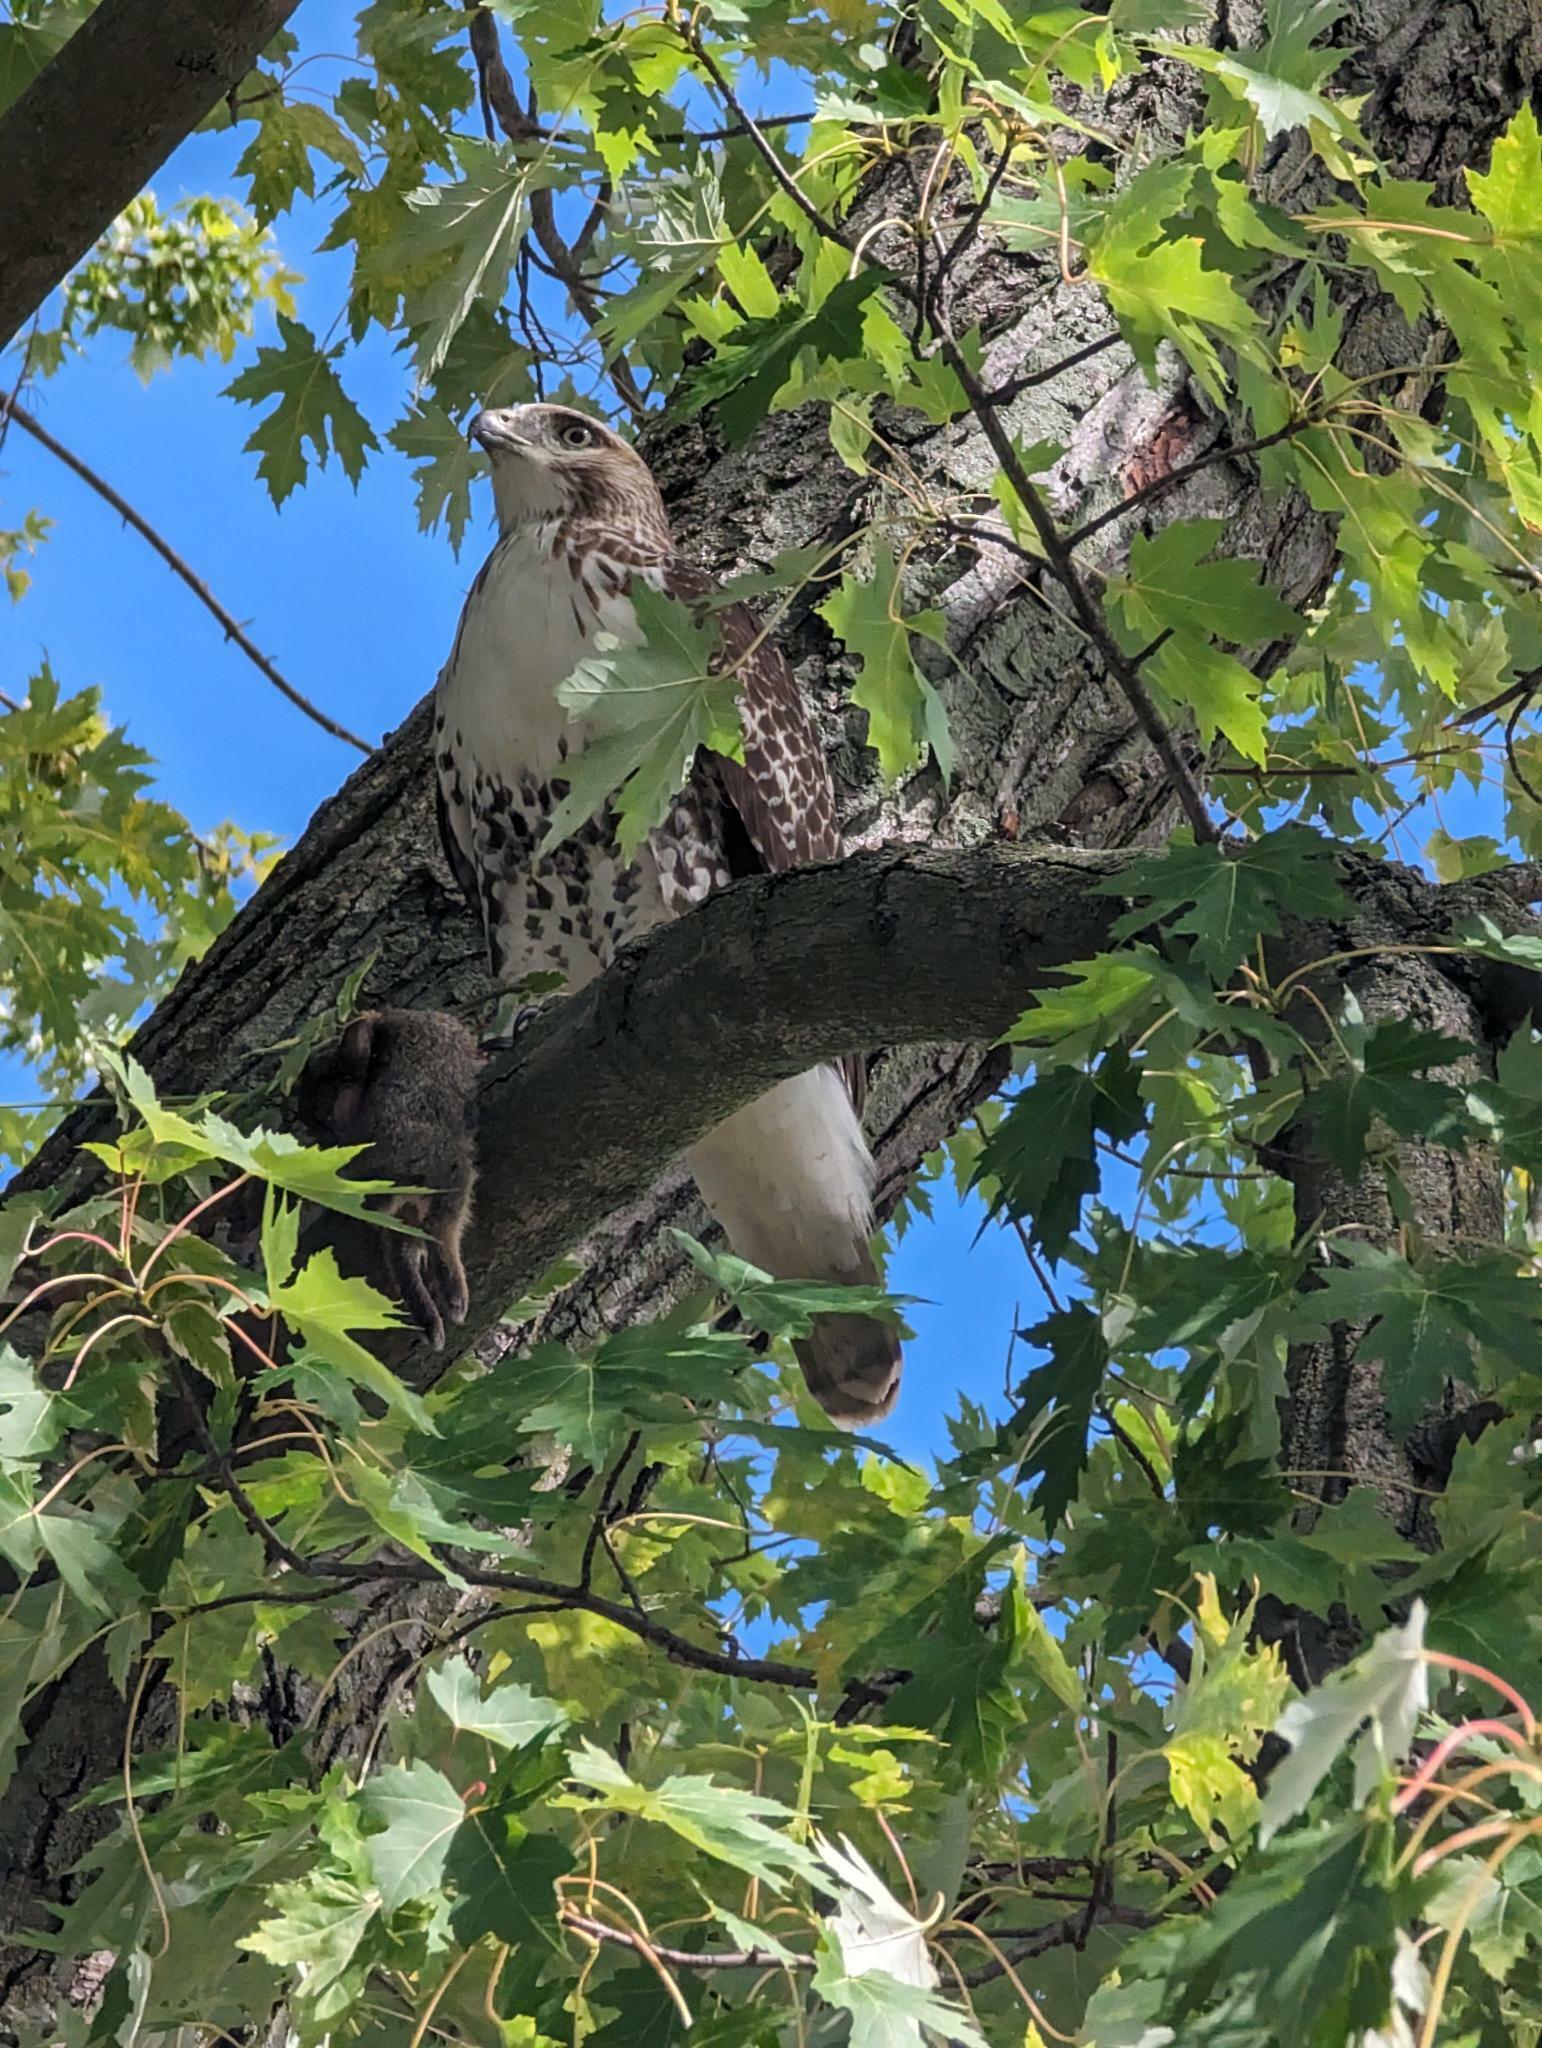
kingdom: Animalia
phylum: Chordata
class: Aves
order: Accipitriformes
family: Accipitridae
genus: Buteo
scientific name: Buteo jamaicensis
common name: Red-tailed hawk
